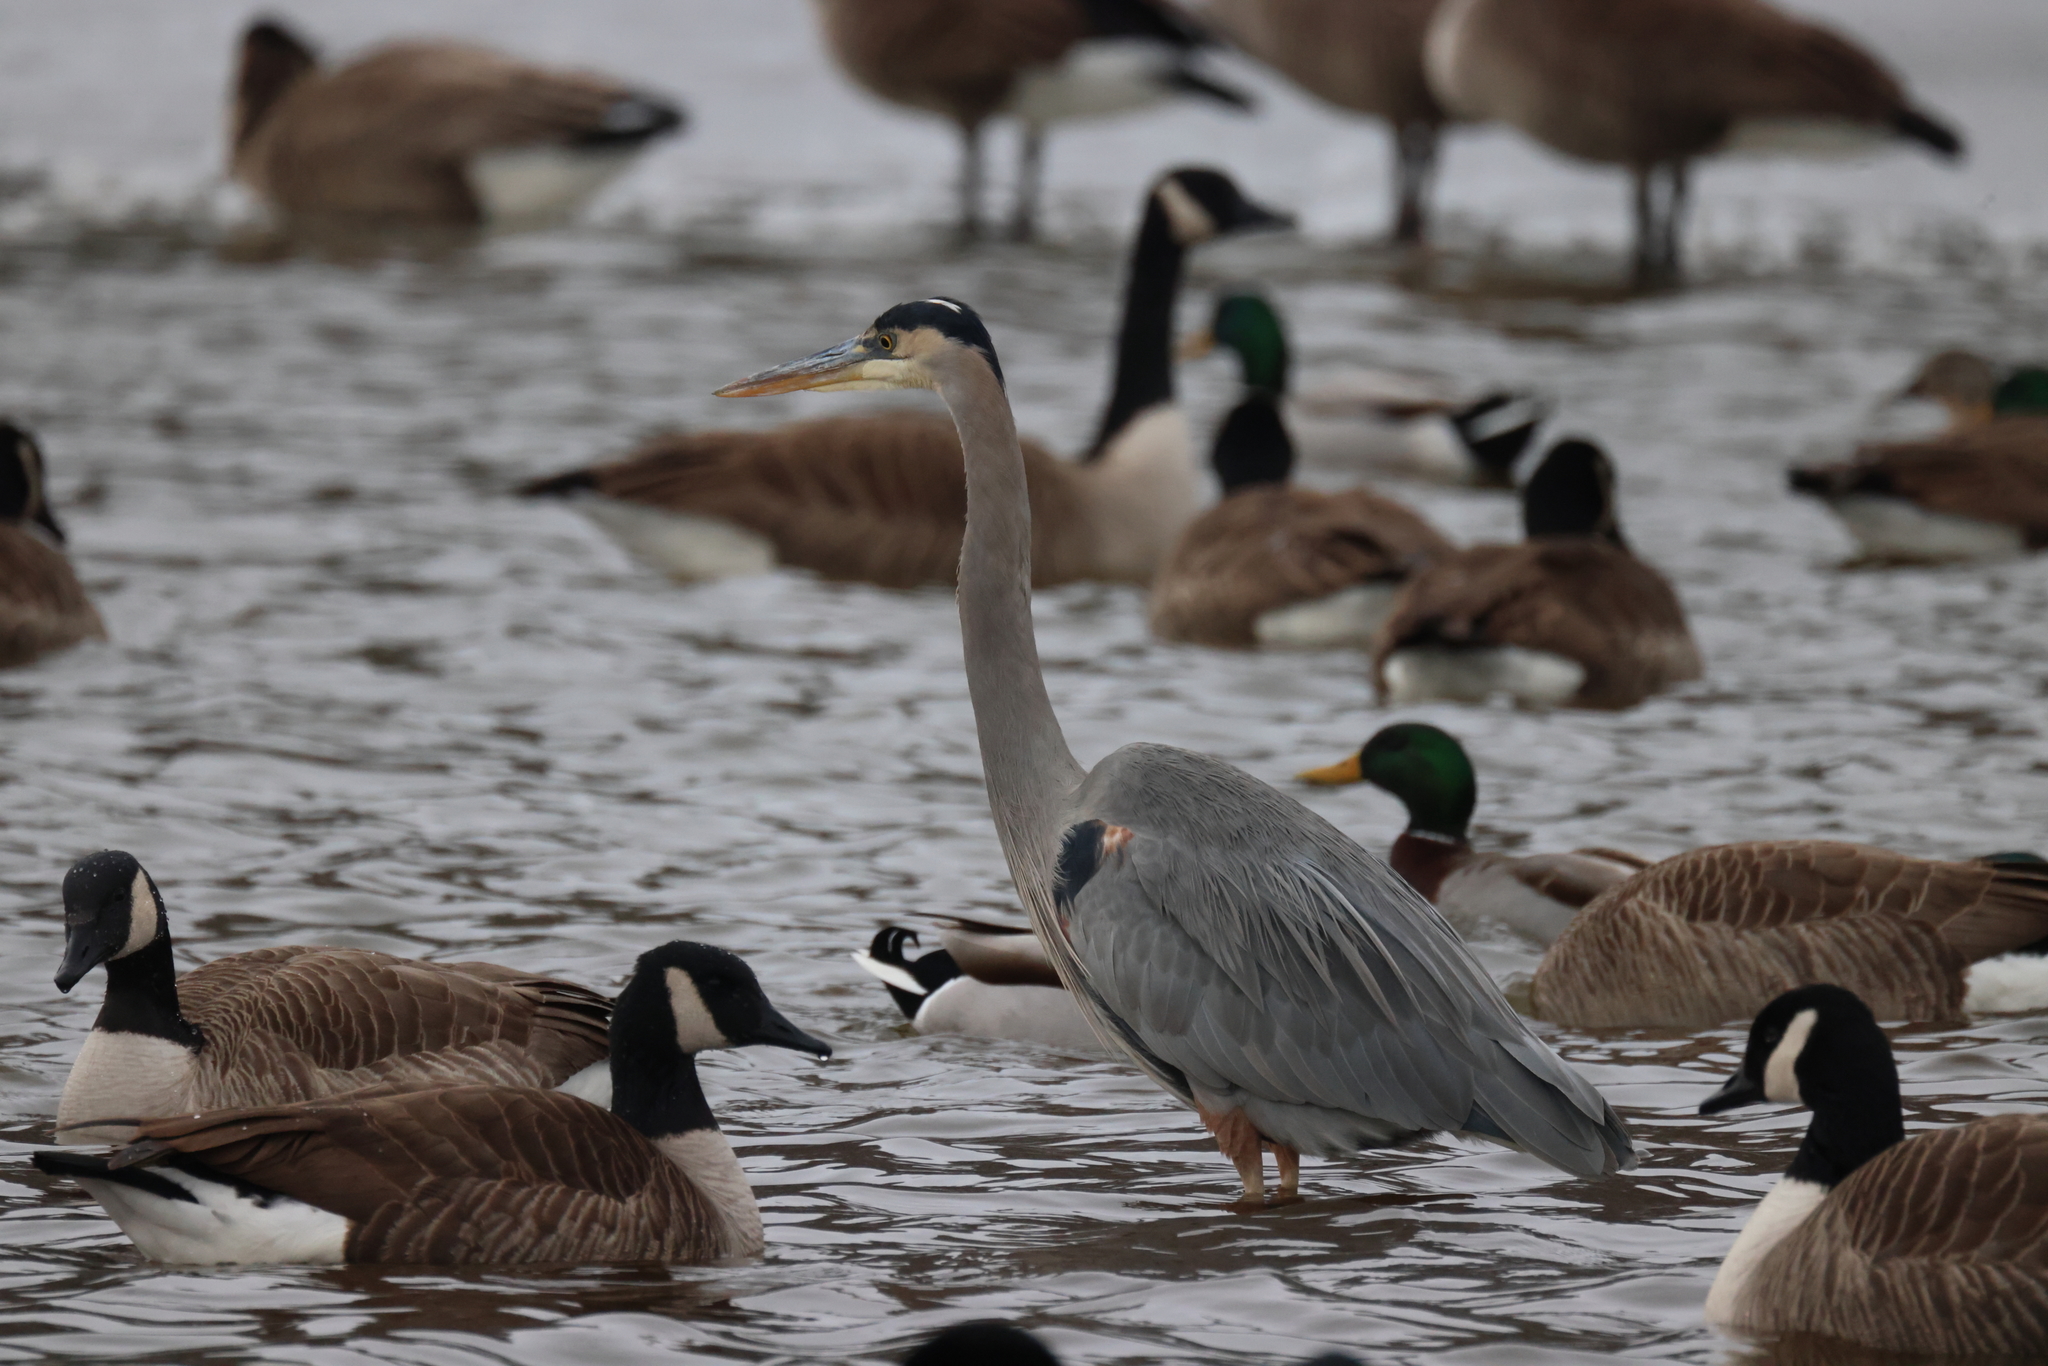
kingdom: Animalia
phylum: Chordata
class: Aves
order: Anseriformes
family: Anatidae
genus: Branta
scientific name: Branta canadensis
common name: Canada goose
